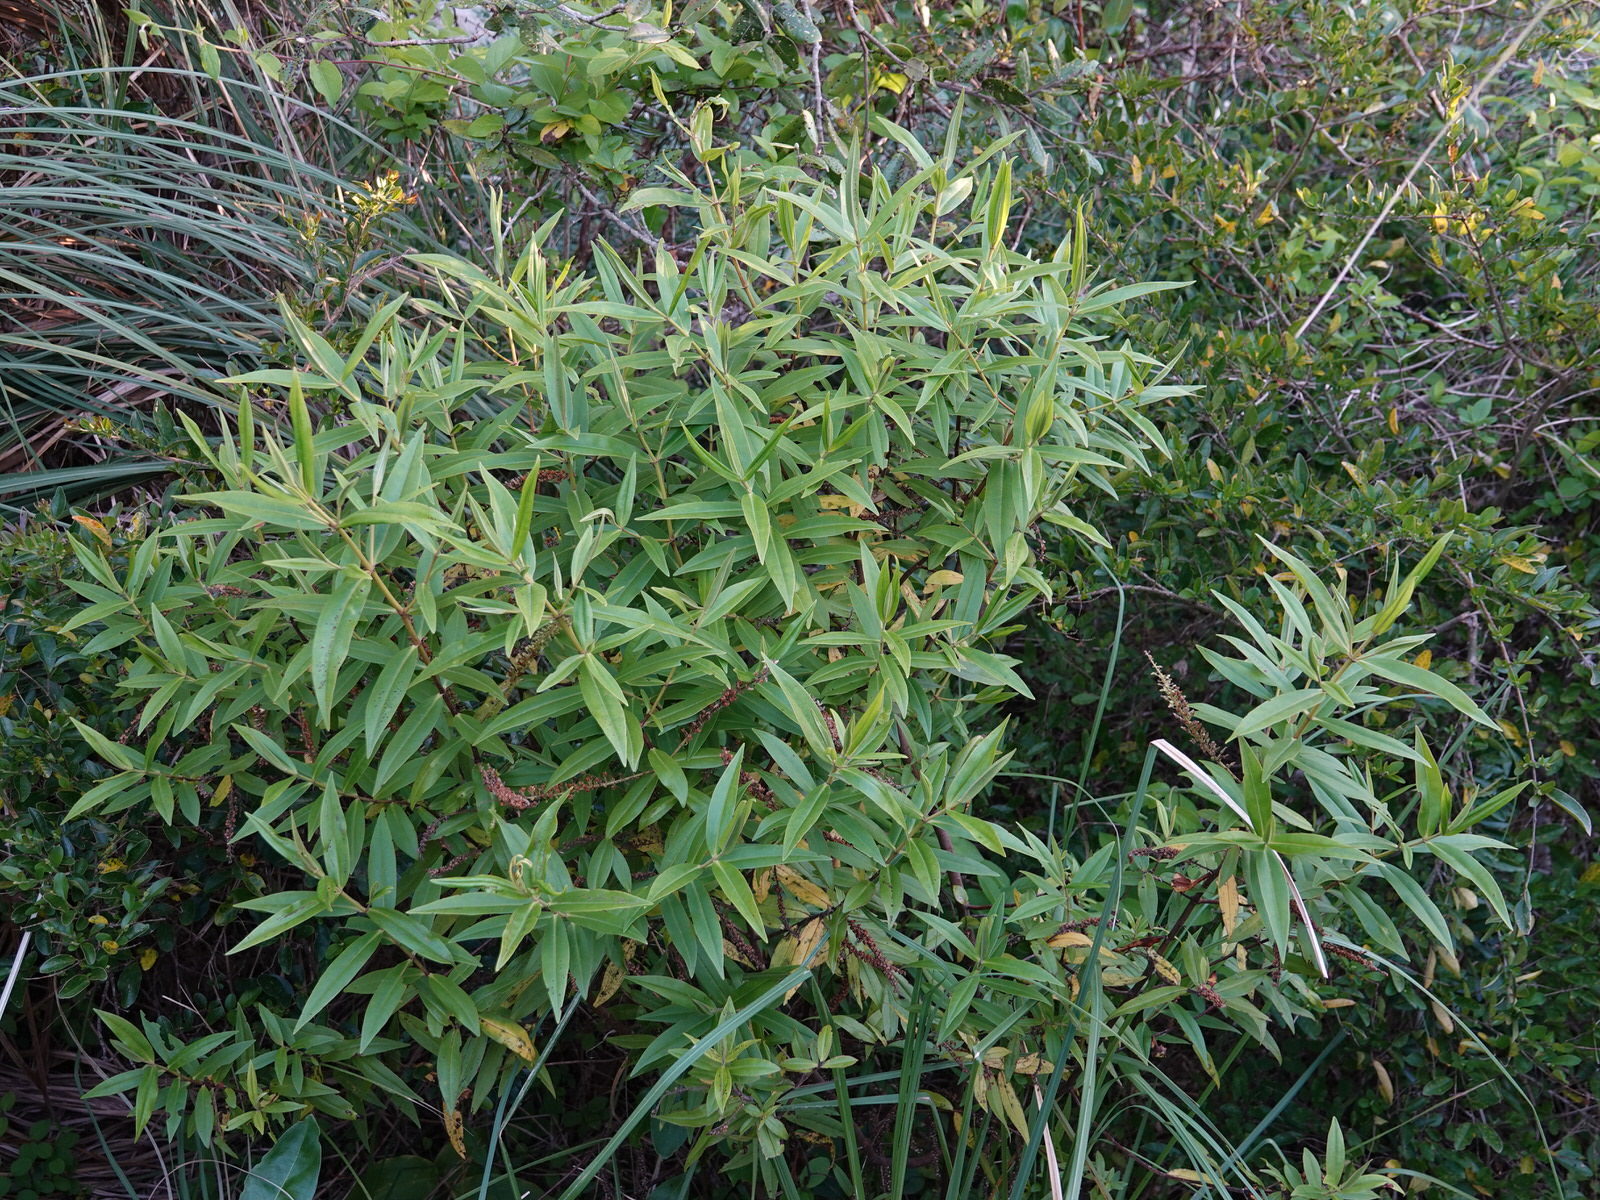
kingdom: Plantae
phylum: Tracheophyta
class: Magnoliopsida
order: Lamiales
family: Plantaginaceae
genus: Veronica
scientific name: Veronica stricta
